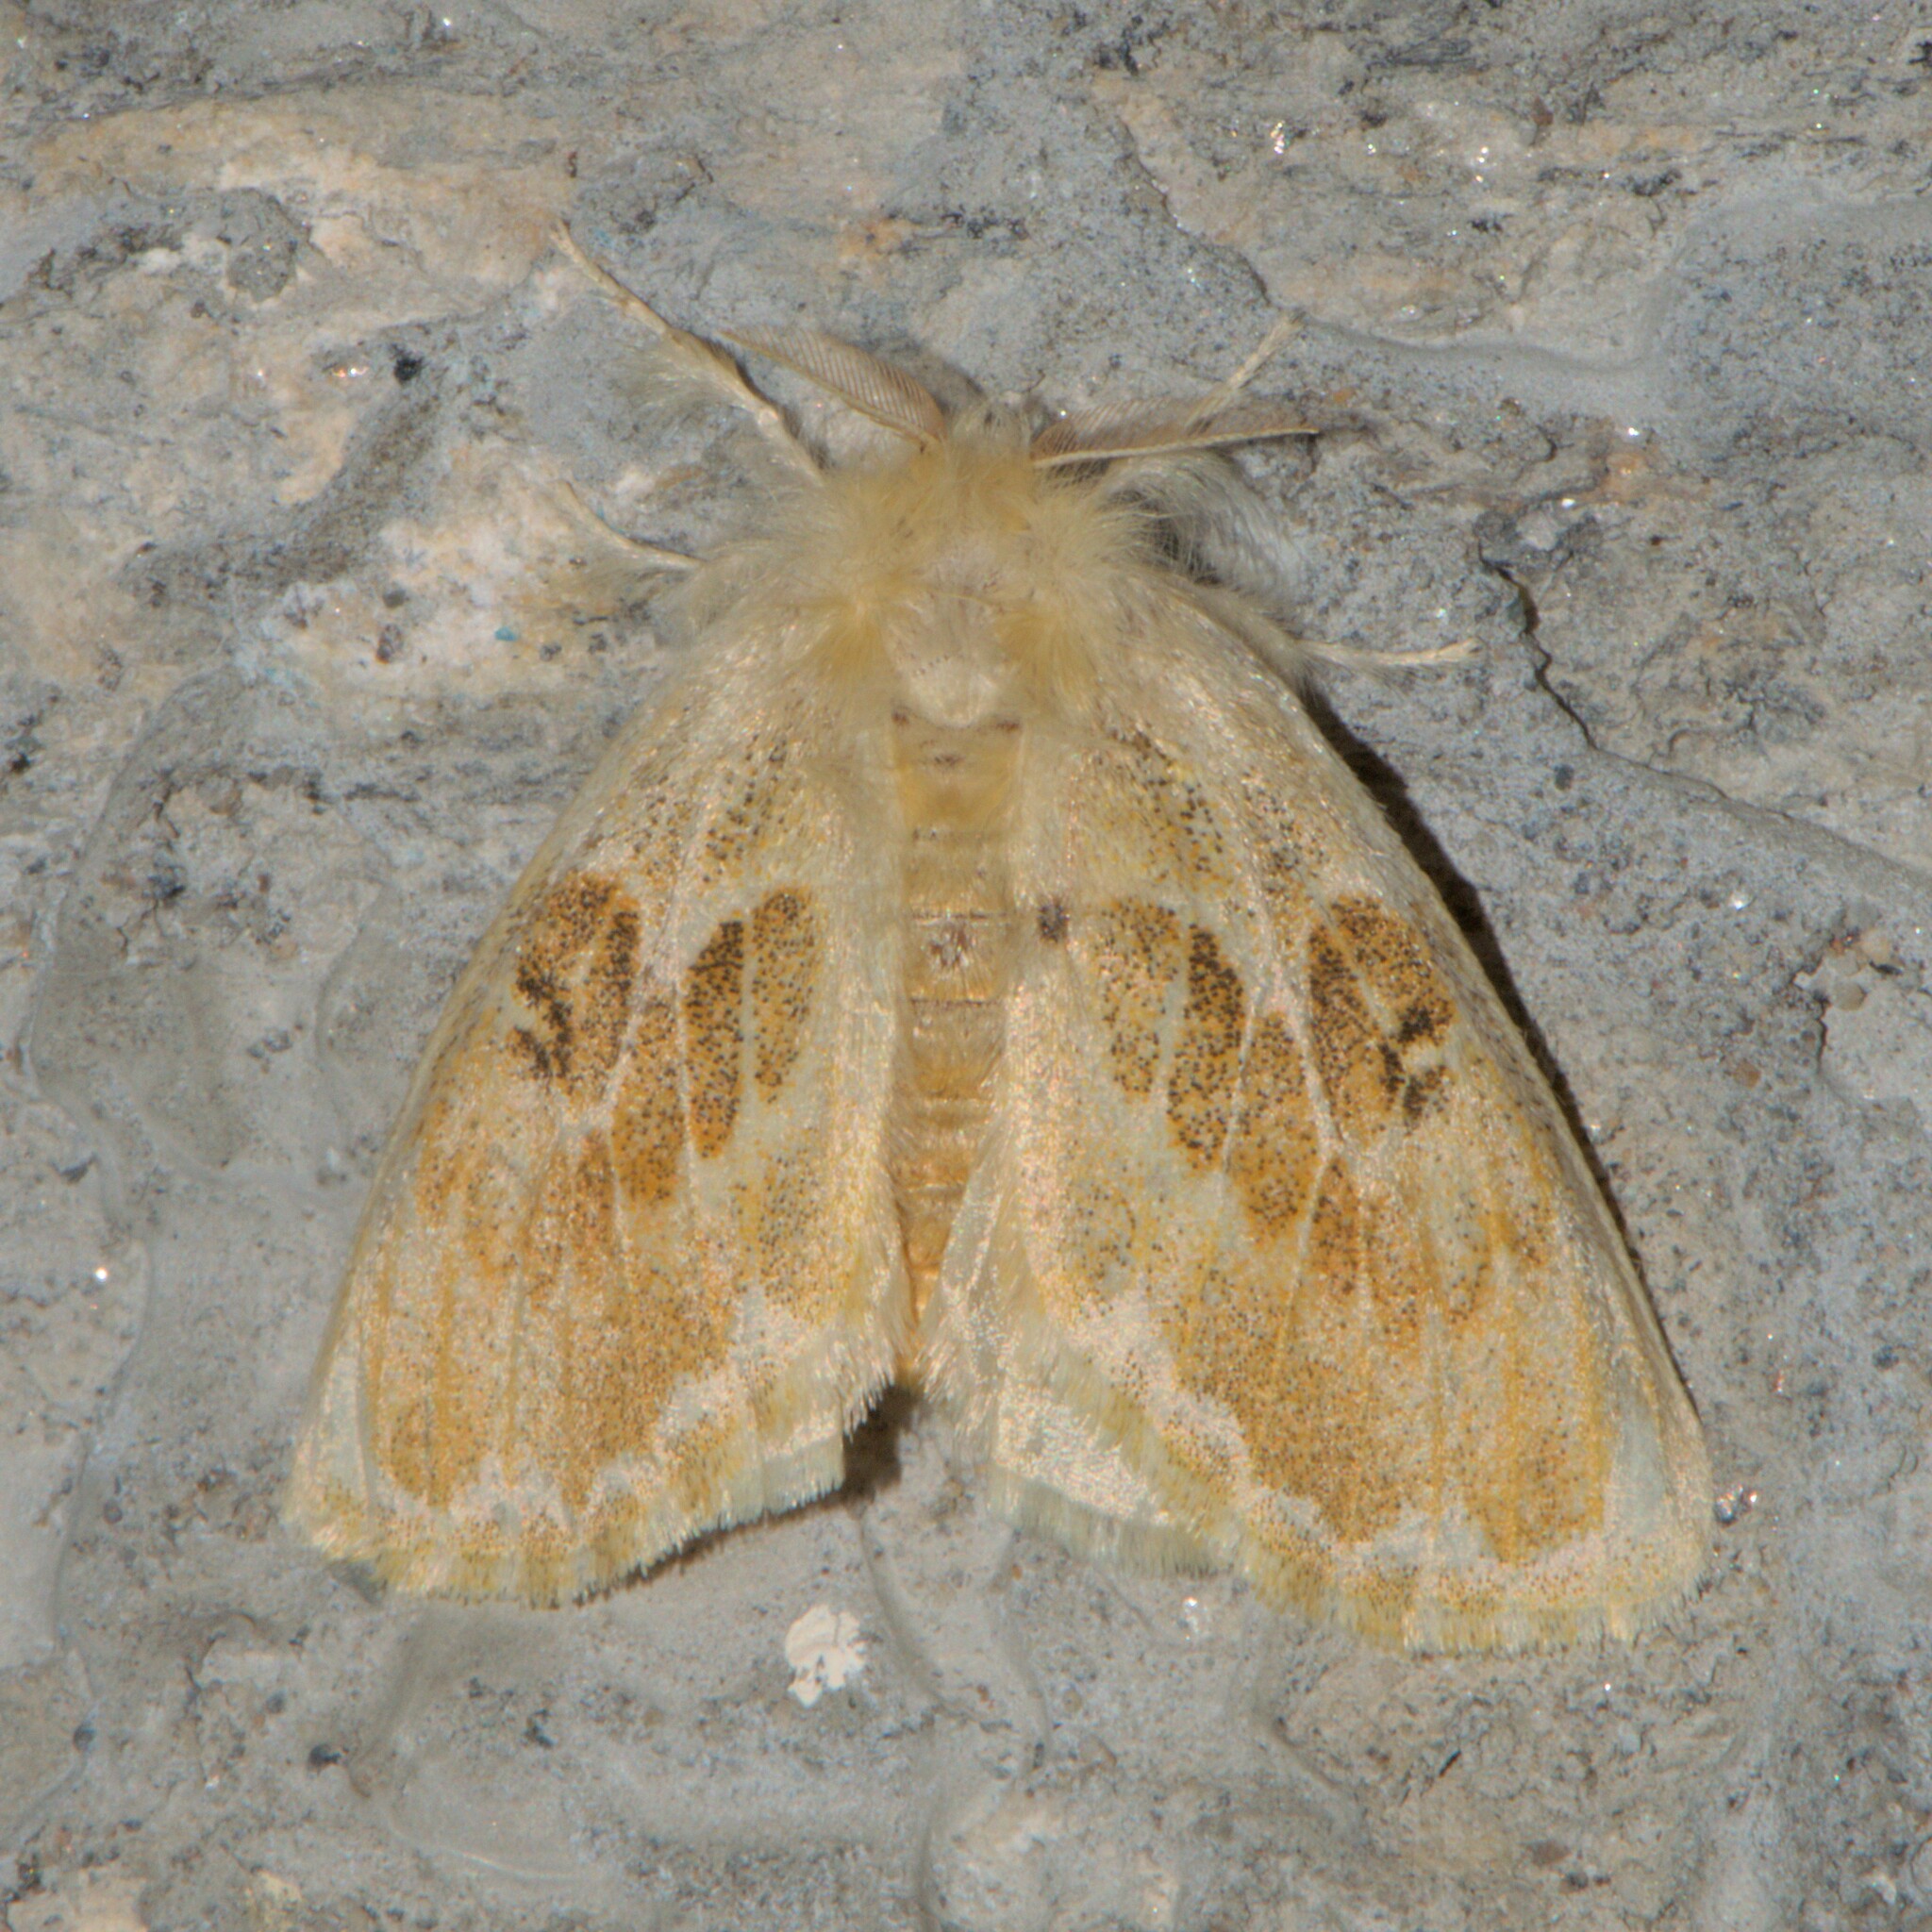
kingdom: Animalia
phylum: Arthropoda
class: Insecta
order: Lepidoptera
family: Erebidae
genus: Euproctis
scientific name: Euproctis bipartita
